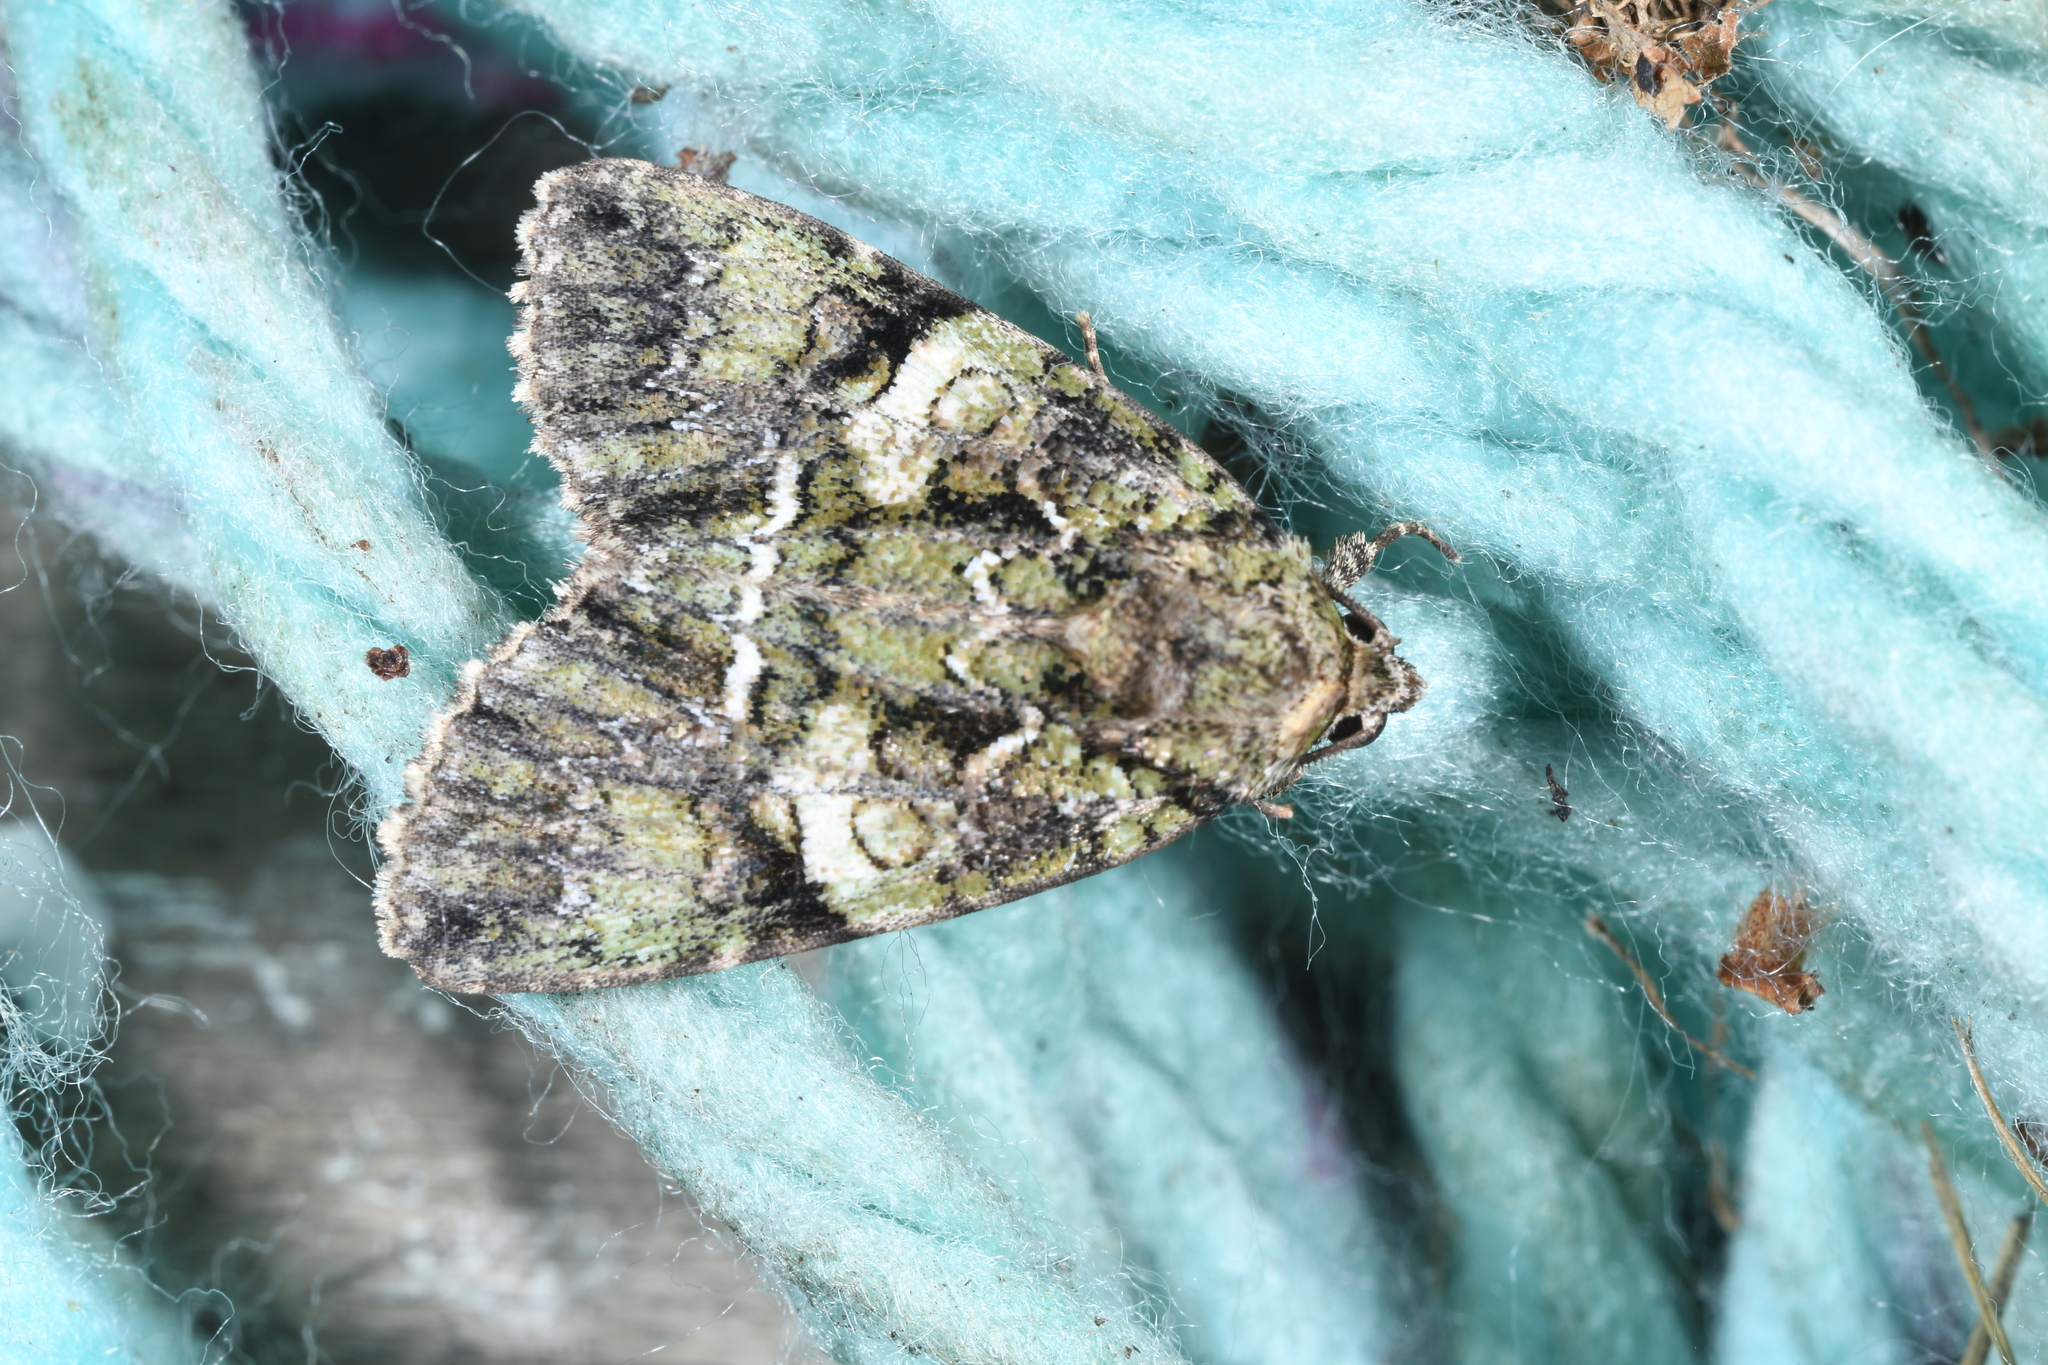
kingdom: Animalia
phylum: Arthropoda
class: Insecta
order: Lepidoptera
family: Noctuidae
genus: Polyphaenis
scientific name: Polyphaenis sericata
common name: Guernsey underwing
